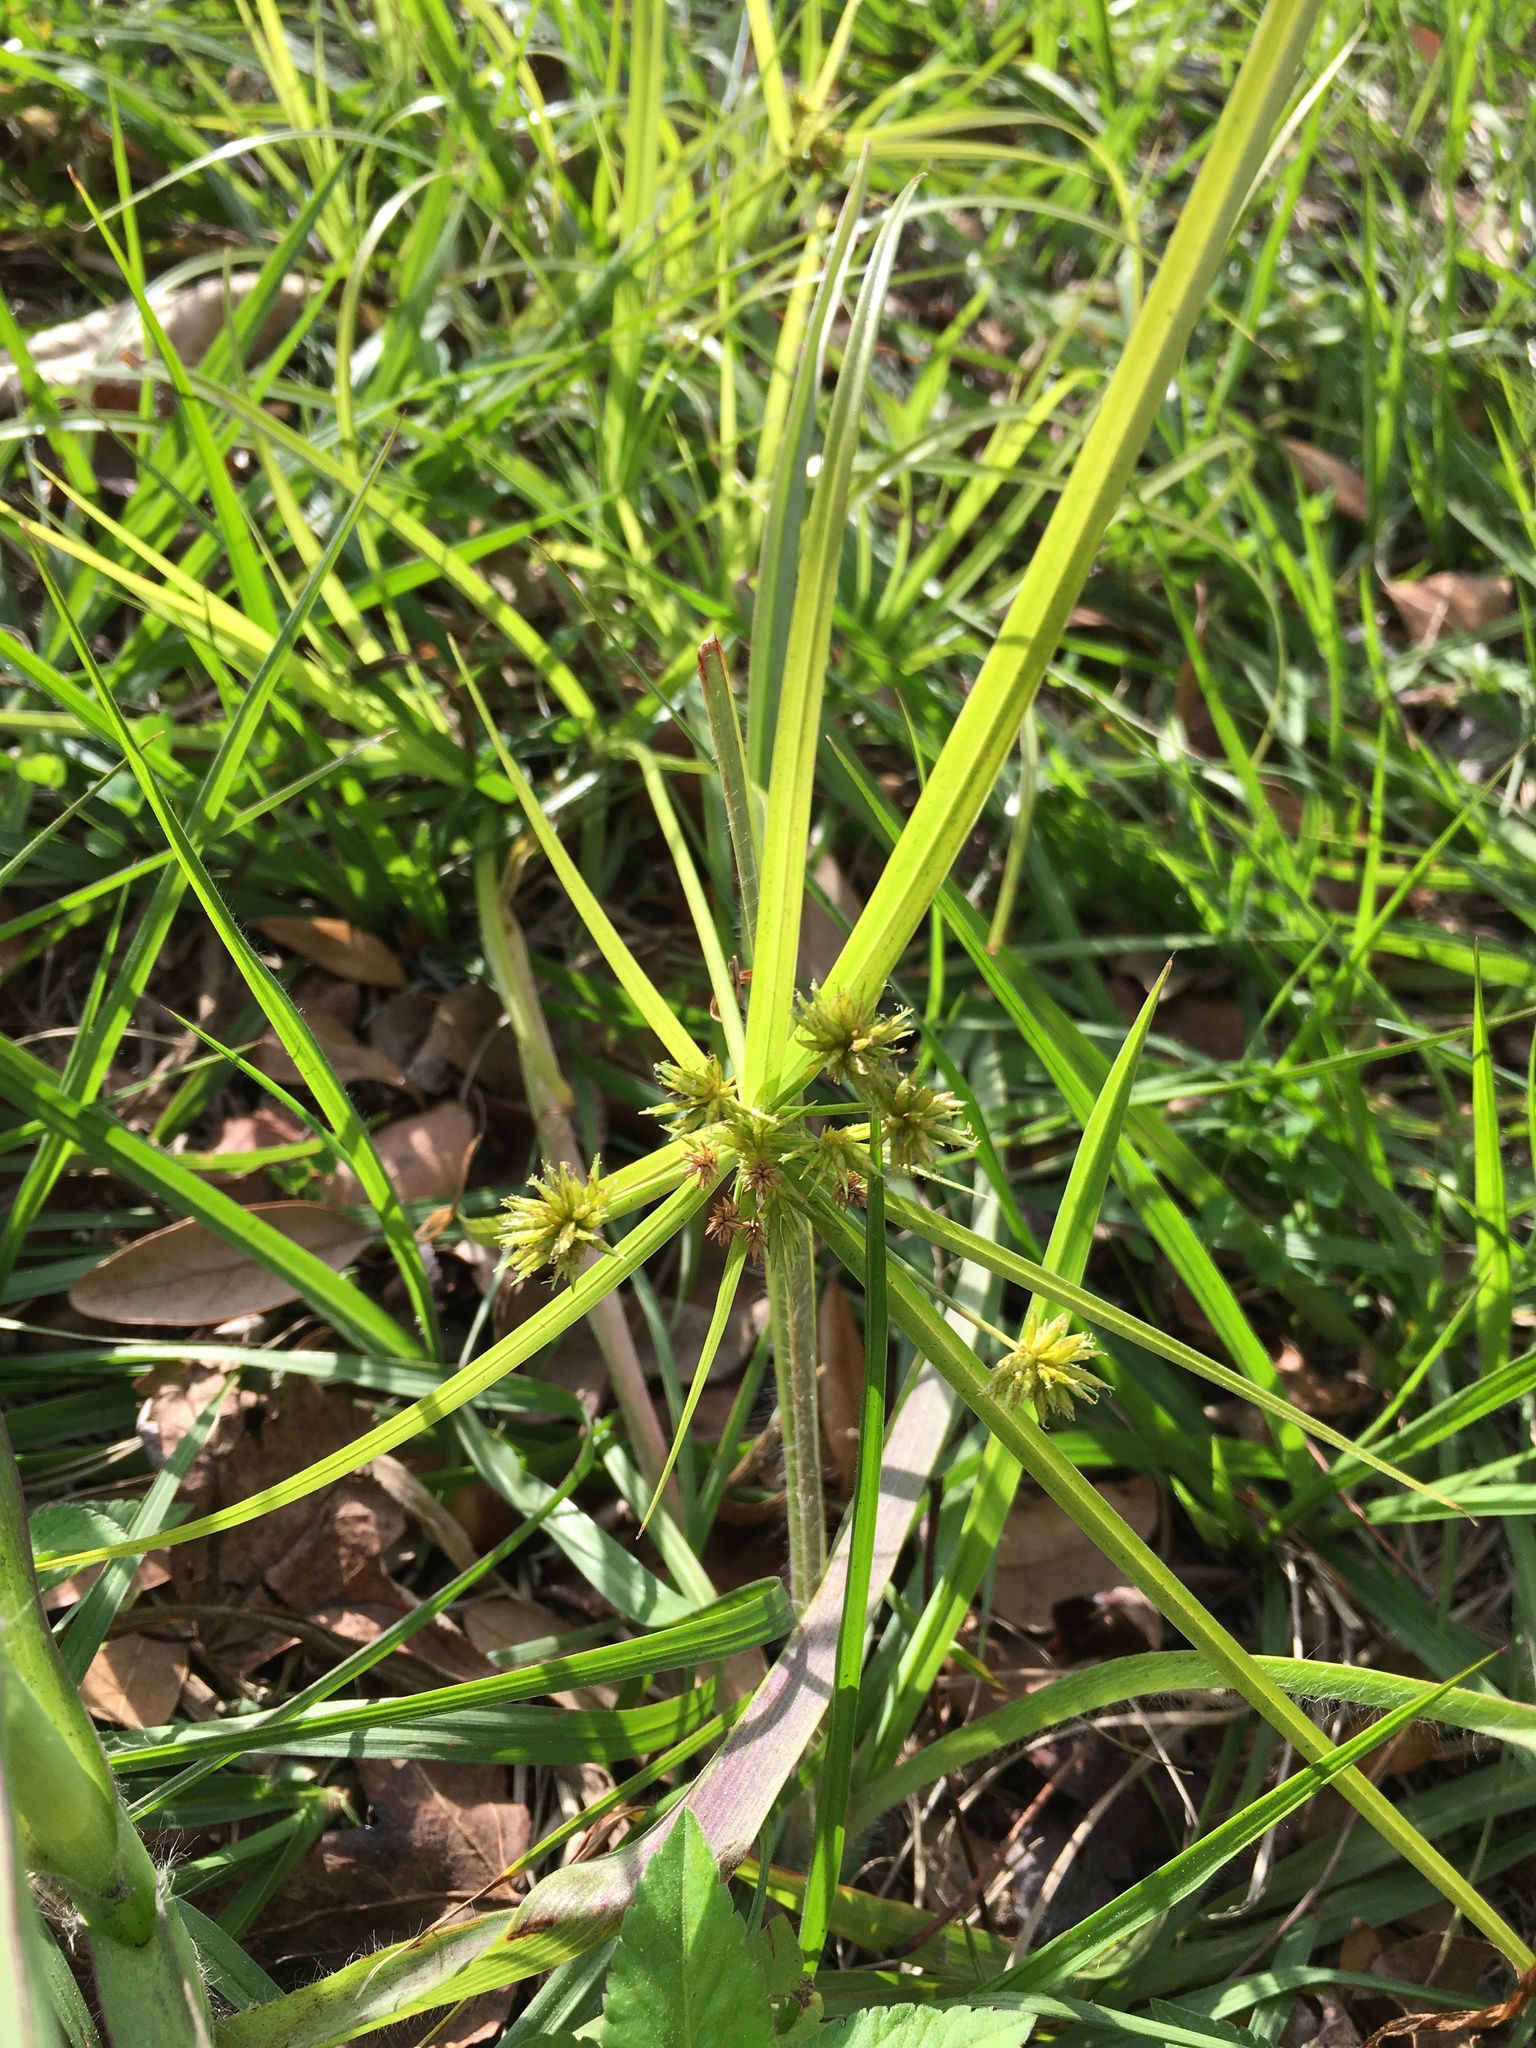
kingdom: Plantae
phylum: Tracheophyta
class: Liliopsida
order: Poales
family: Cyperaceae
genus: Cyperus
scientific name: Cyperus croceus
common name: Baldwin's flatsedge
